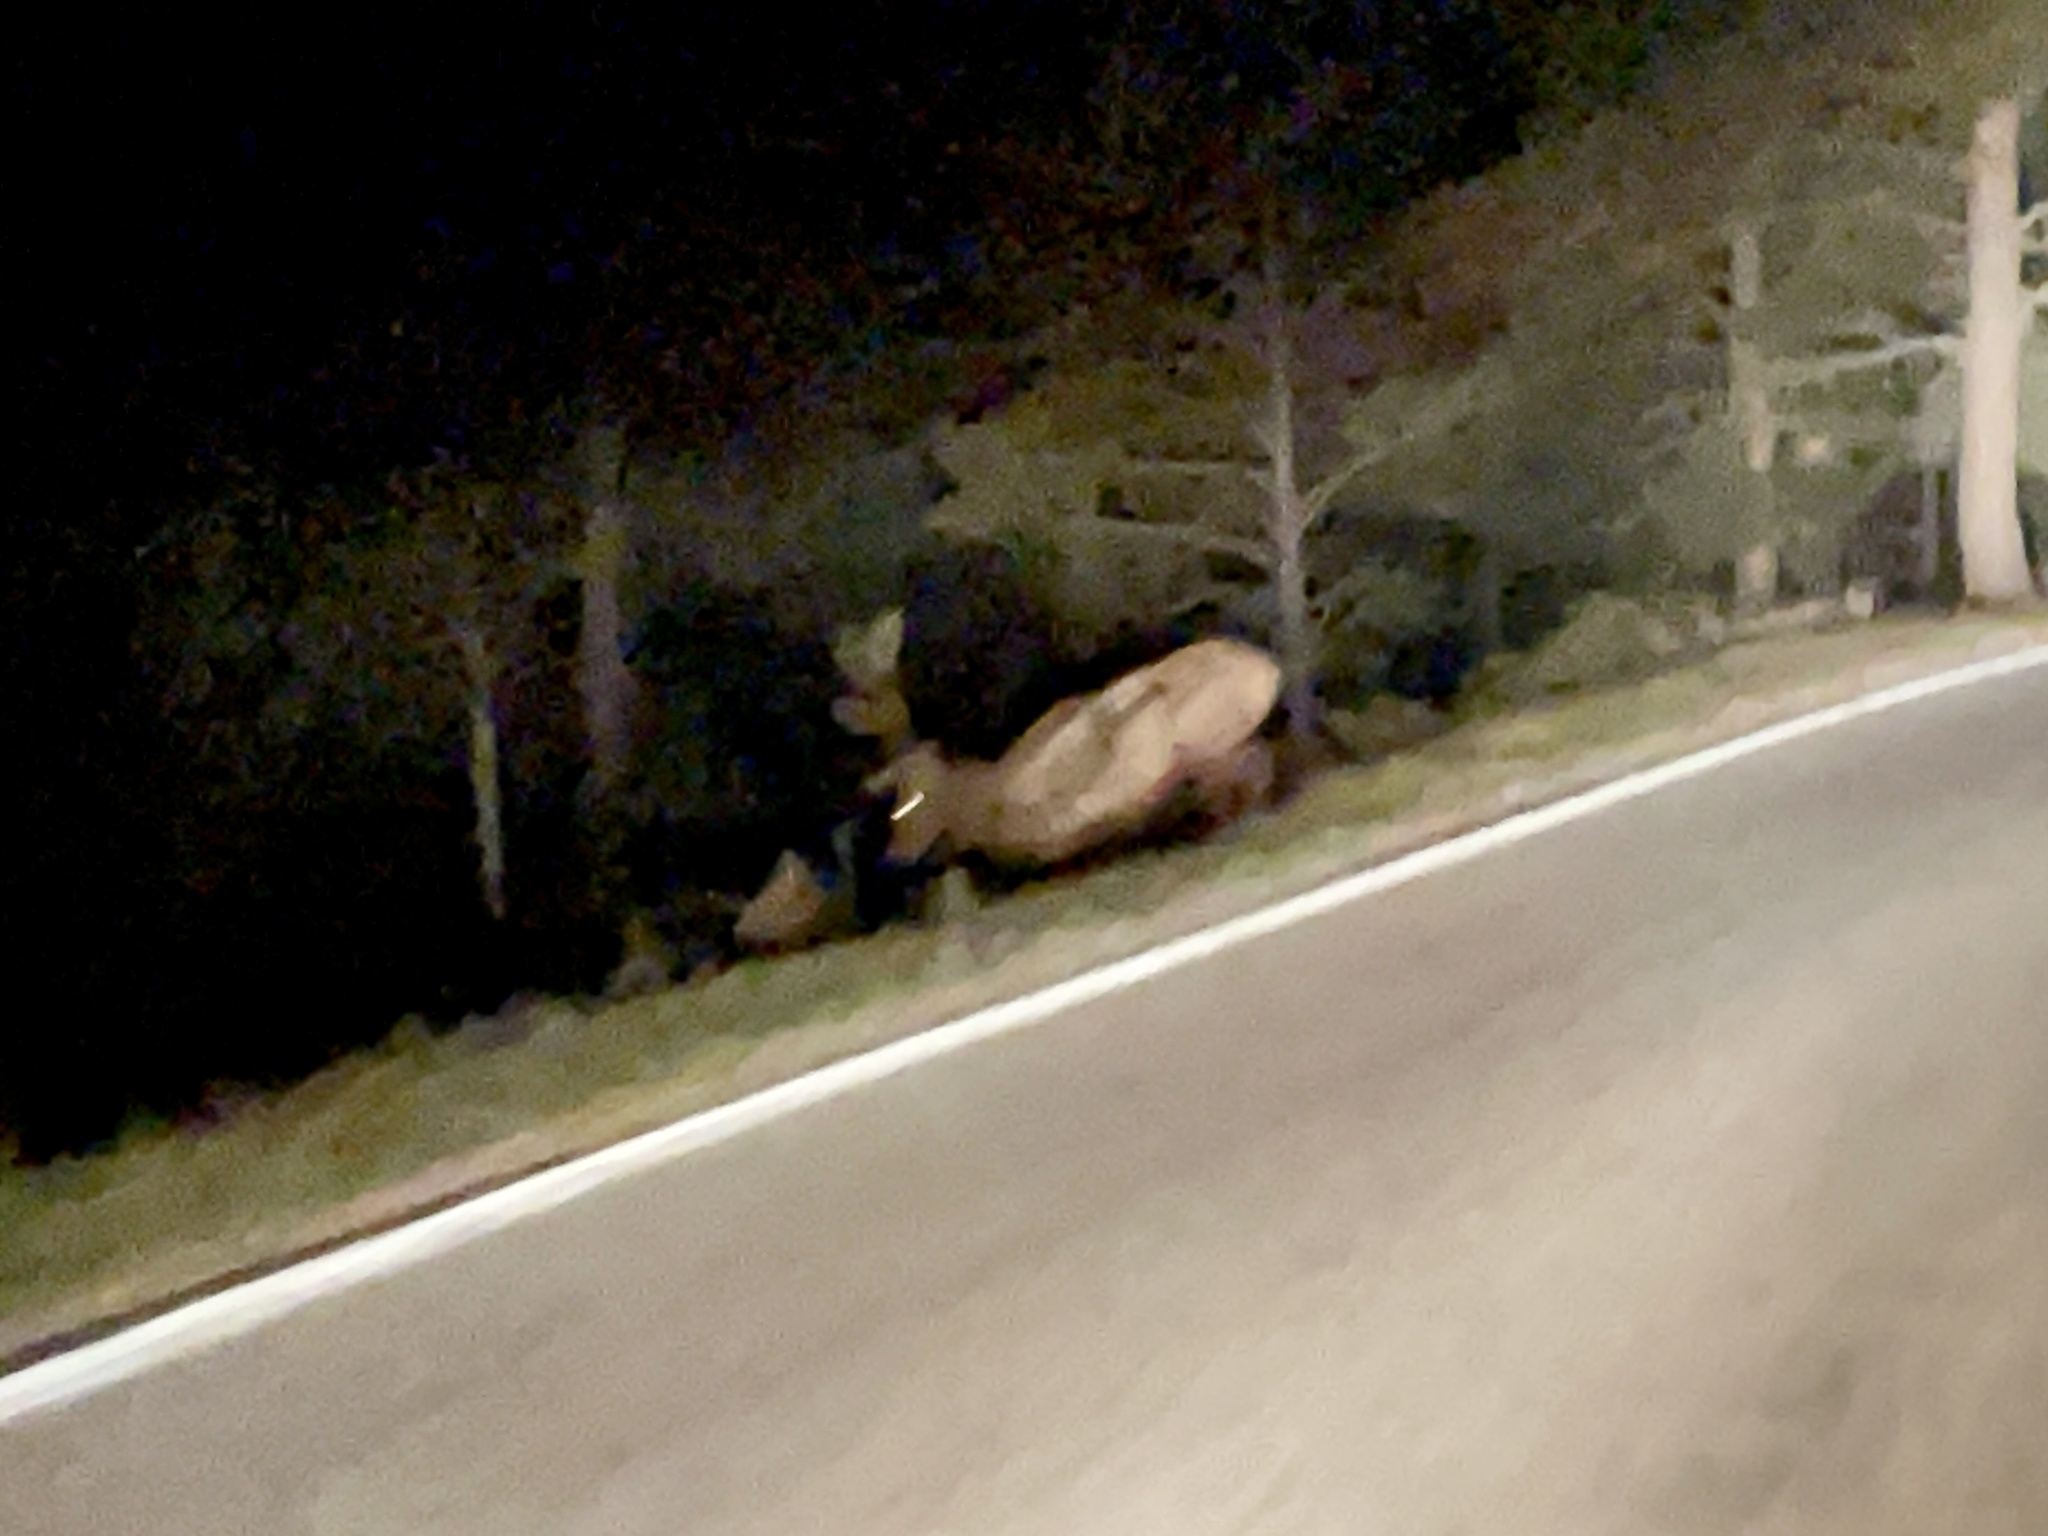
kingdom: Animalia
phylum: Chordata
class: Mammalia
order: Artiodactyla
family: Cervidae
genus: Cervus
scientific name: Cervus elaphus
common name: Red deer
